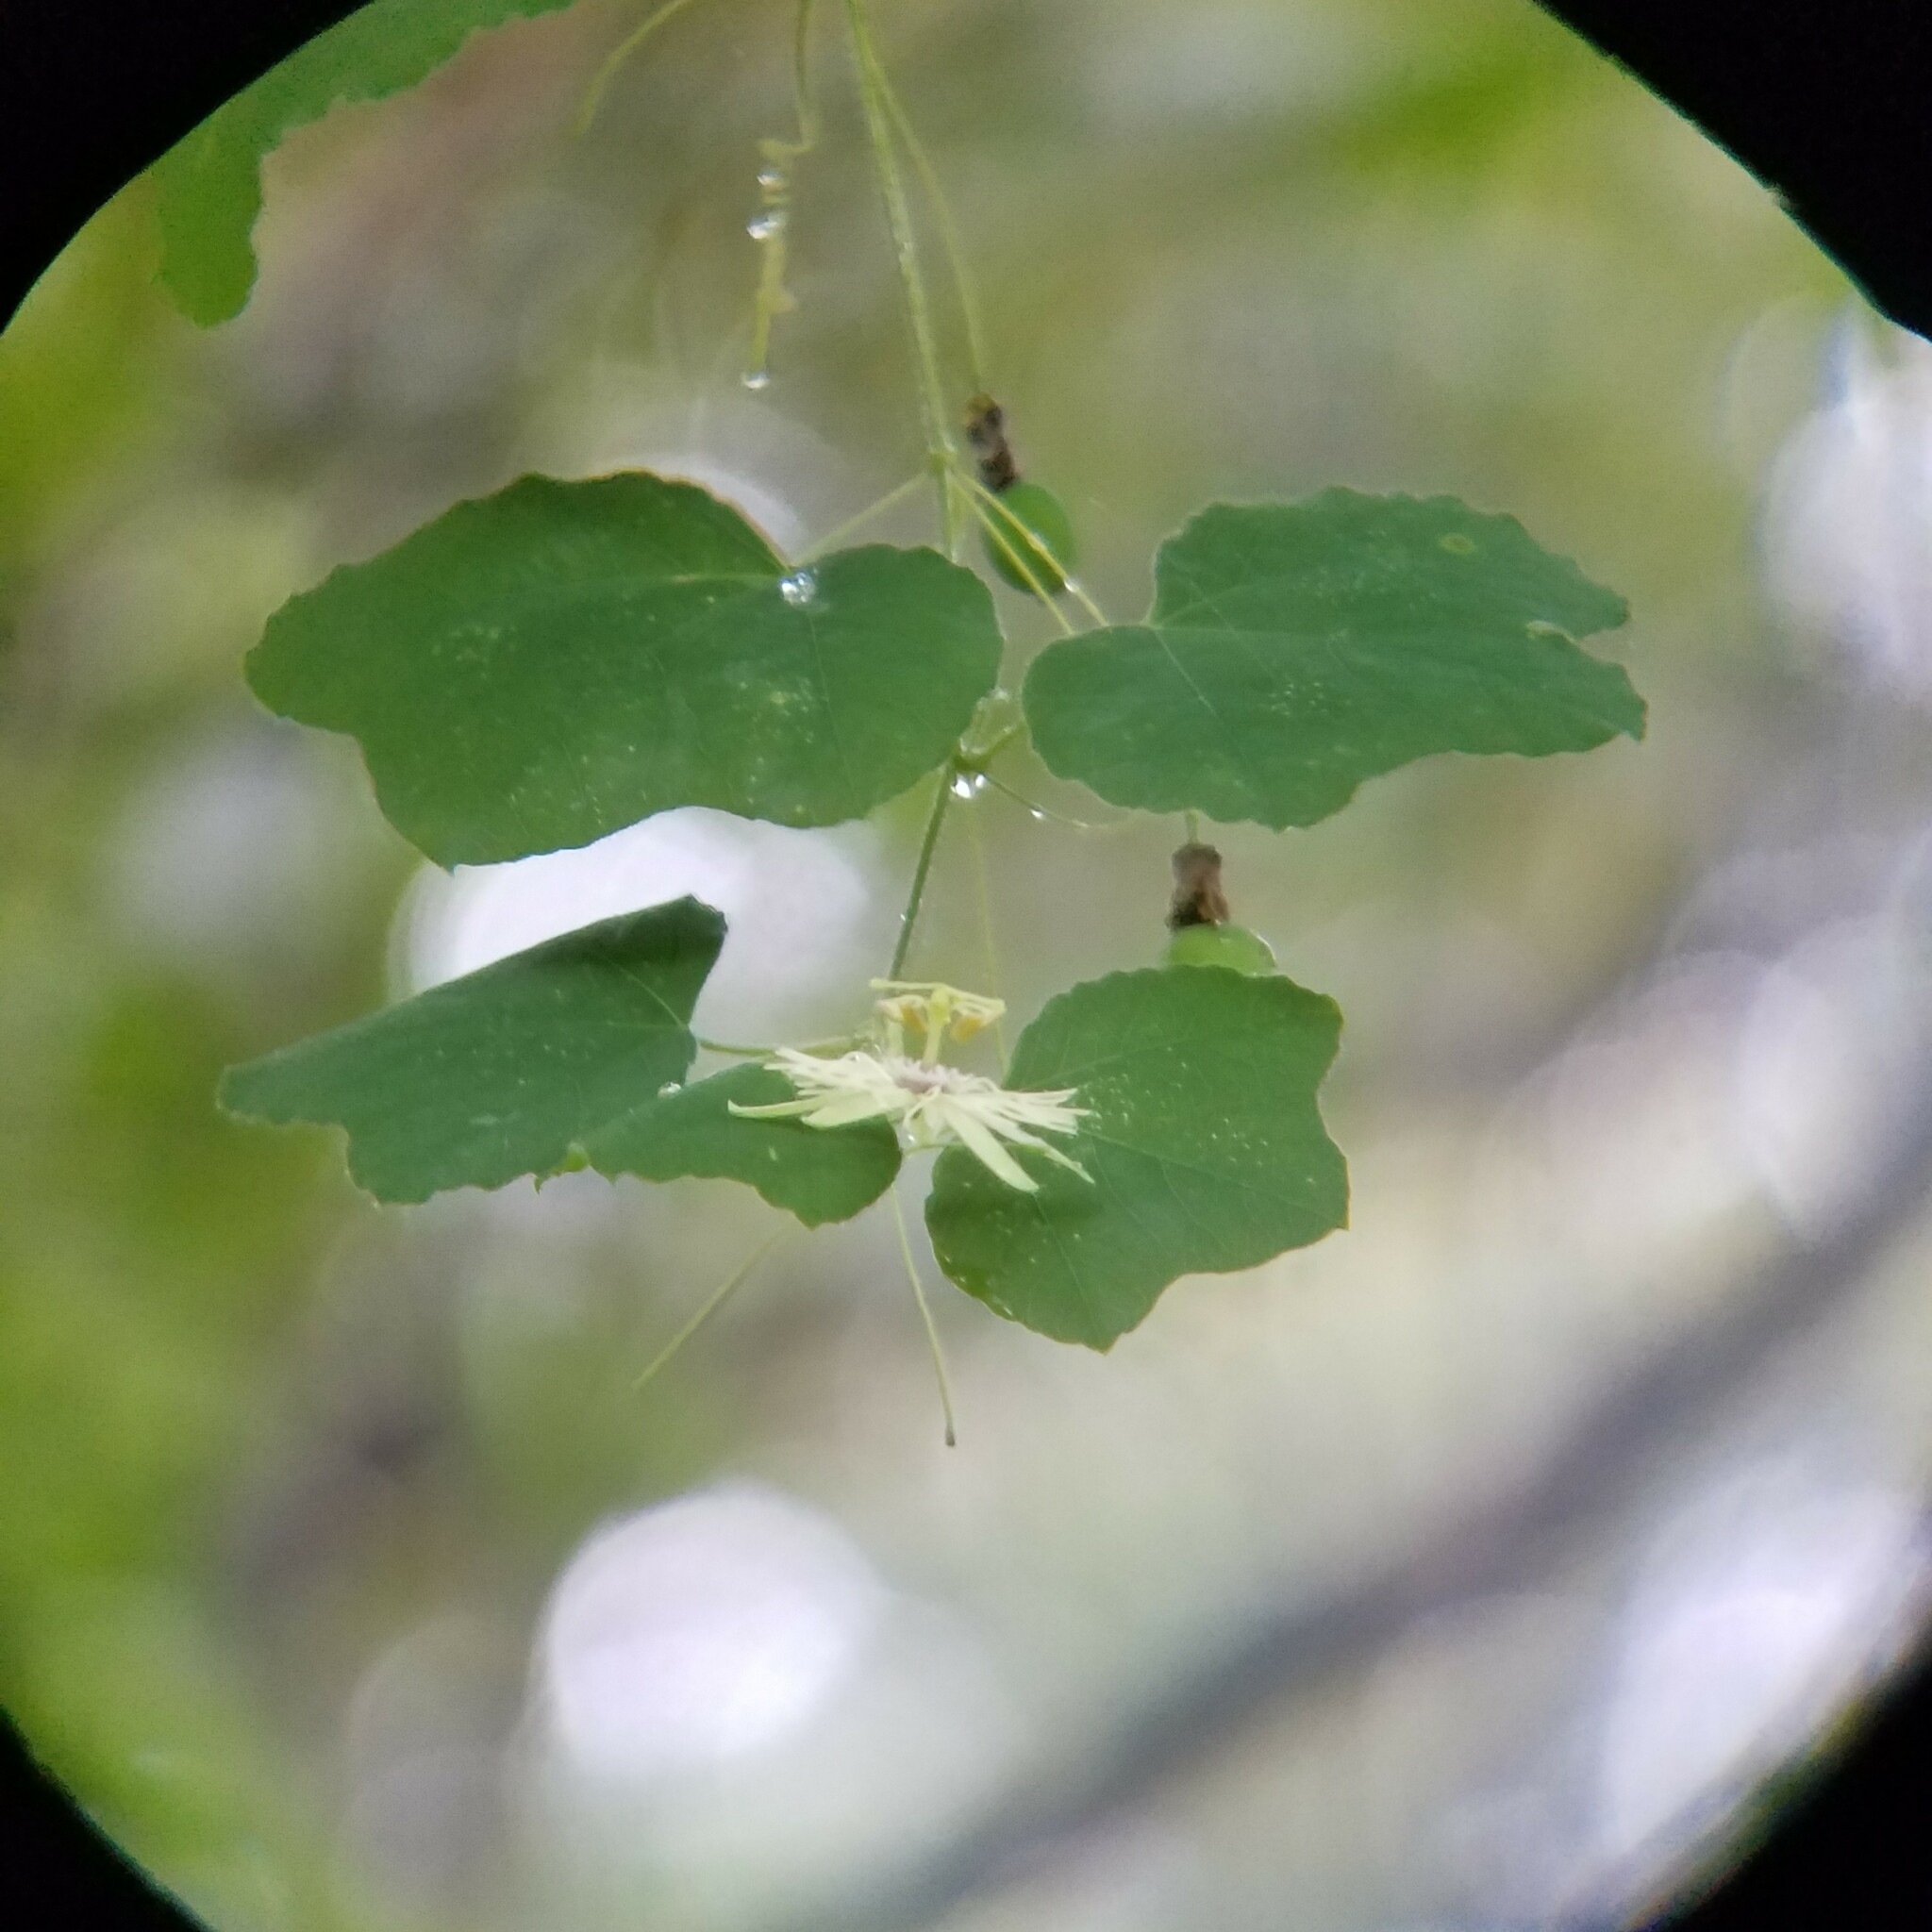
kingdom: Plantae
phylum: Tracheophyta
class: Magnoliopsida
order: Malpighiales
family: Passifloraceae
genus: Passiflora
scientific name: Passiflora lutea
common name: Yellow passionflower
